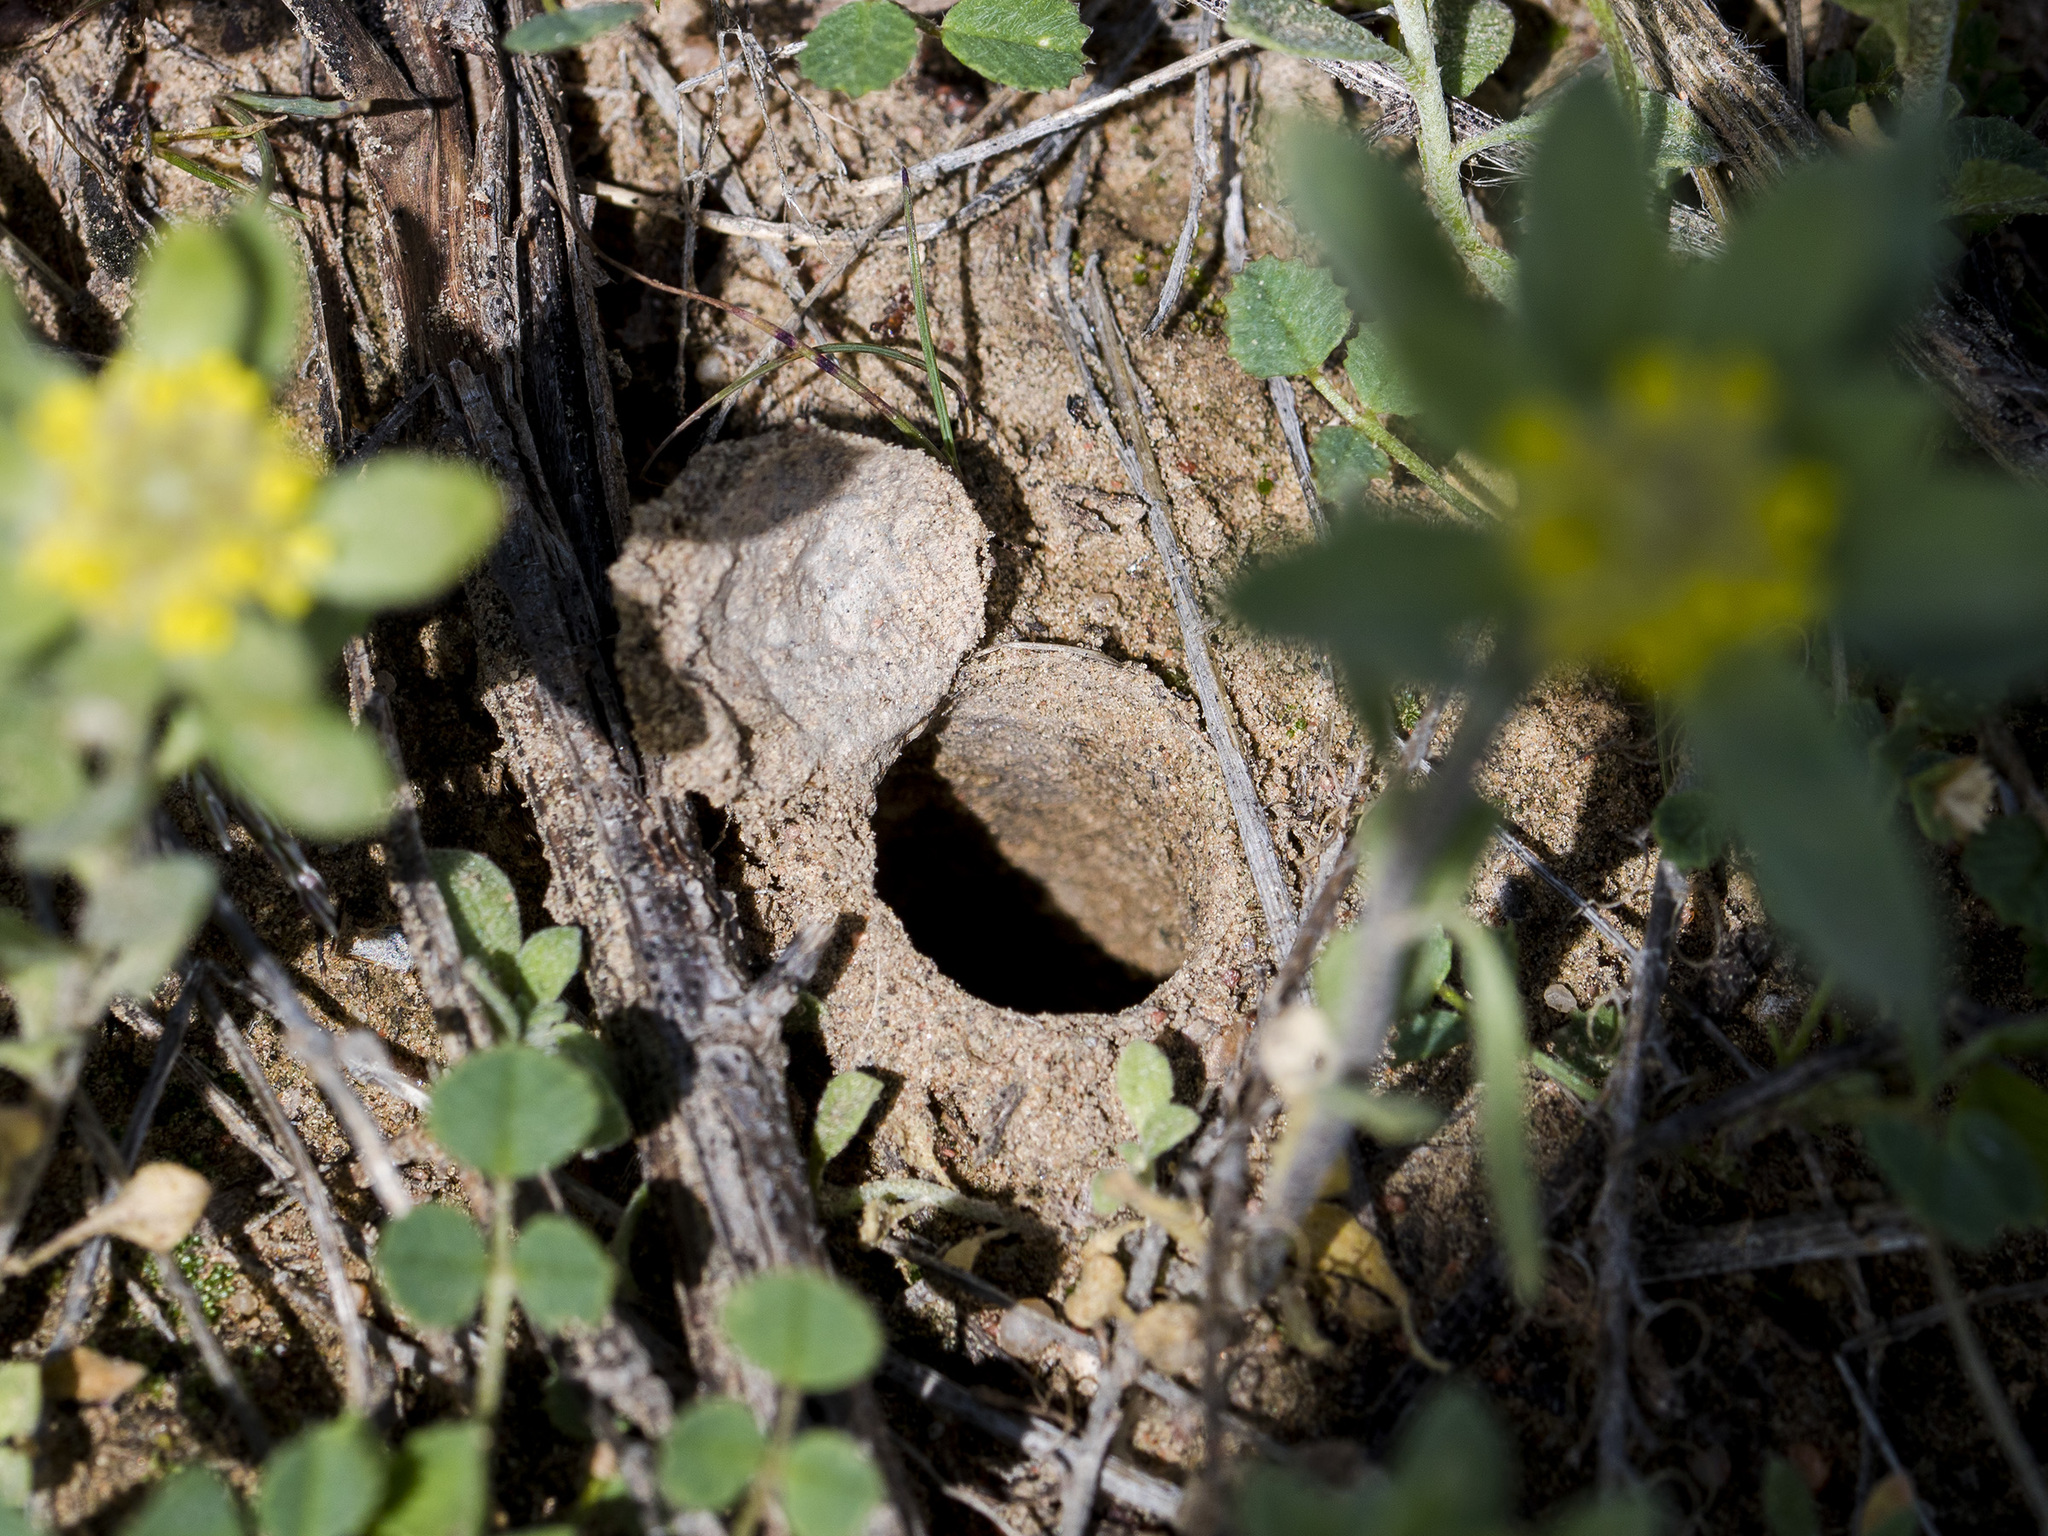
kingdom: Animalia
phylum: Arthropoda
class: Arachnida
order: Araneae
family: Lycosidae
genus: Alopecosa
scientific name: Alopecosa marikovskyi
